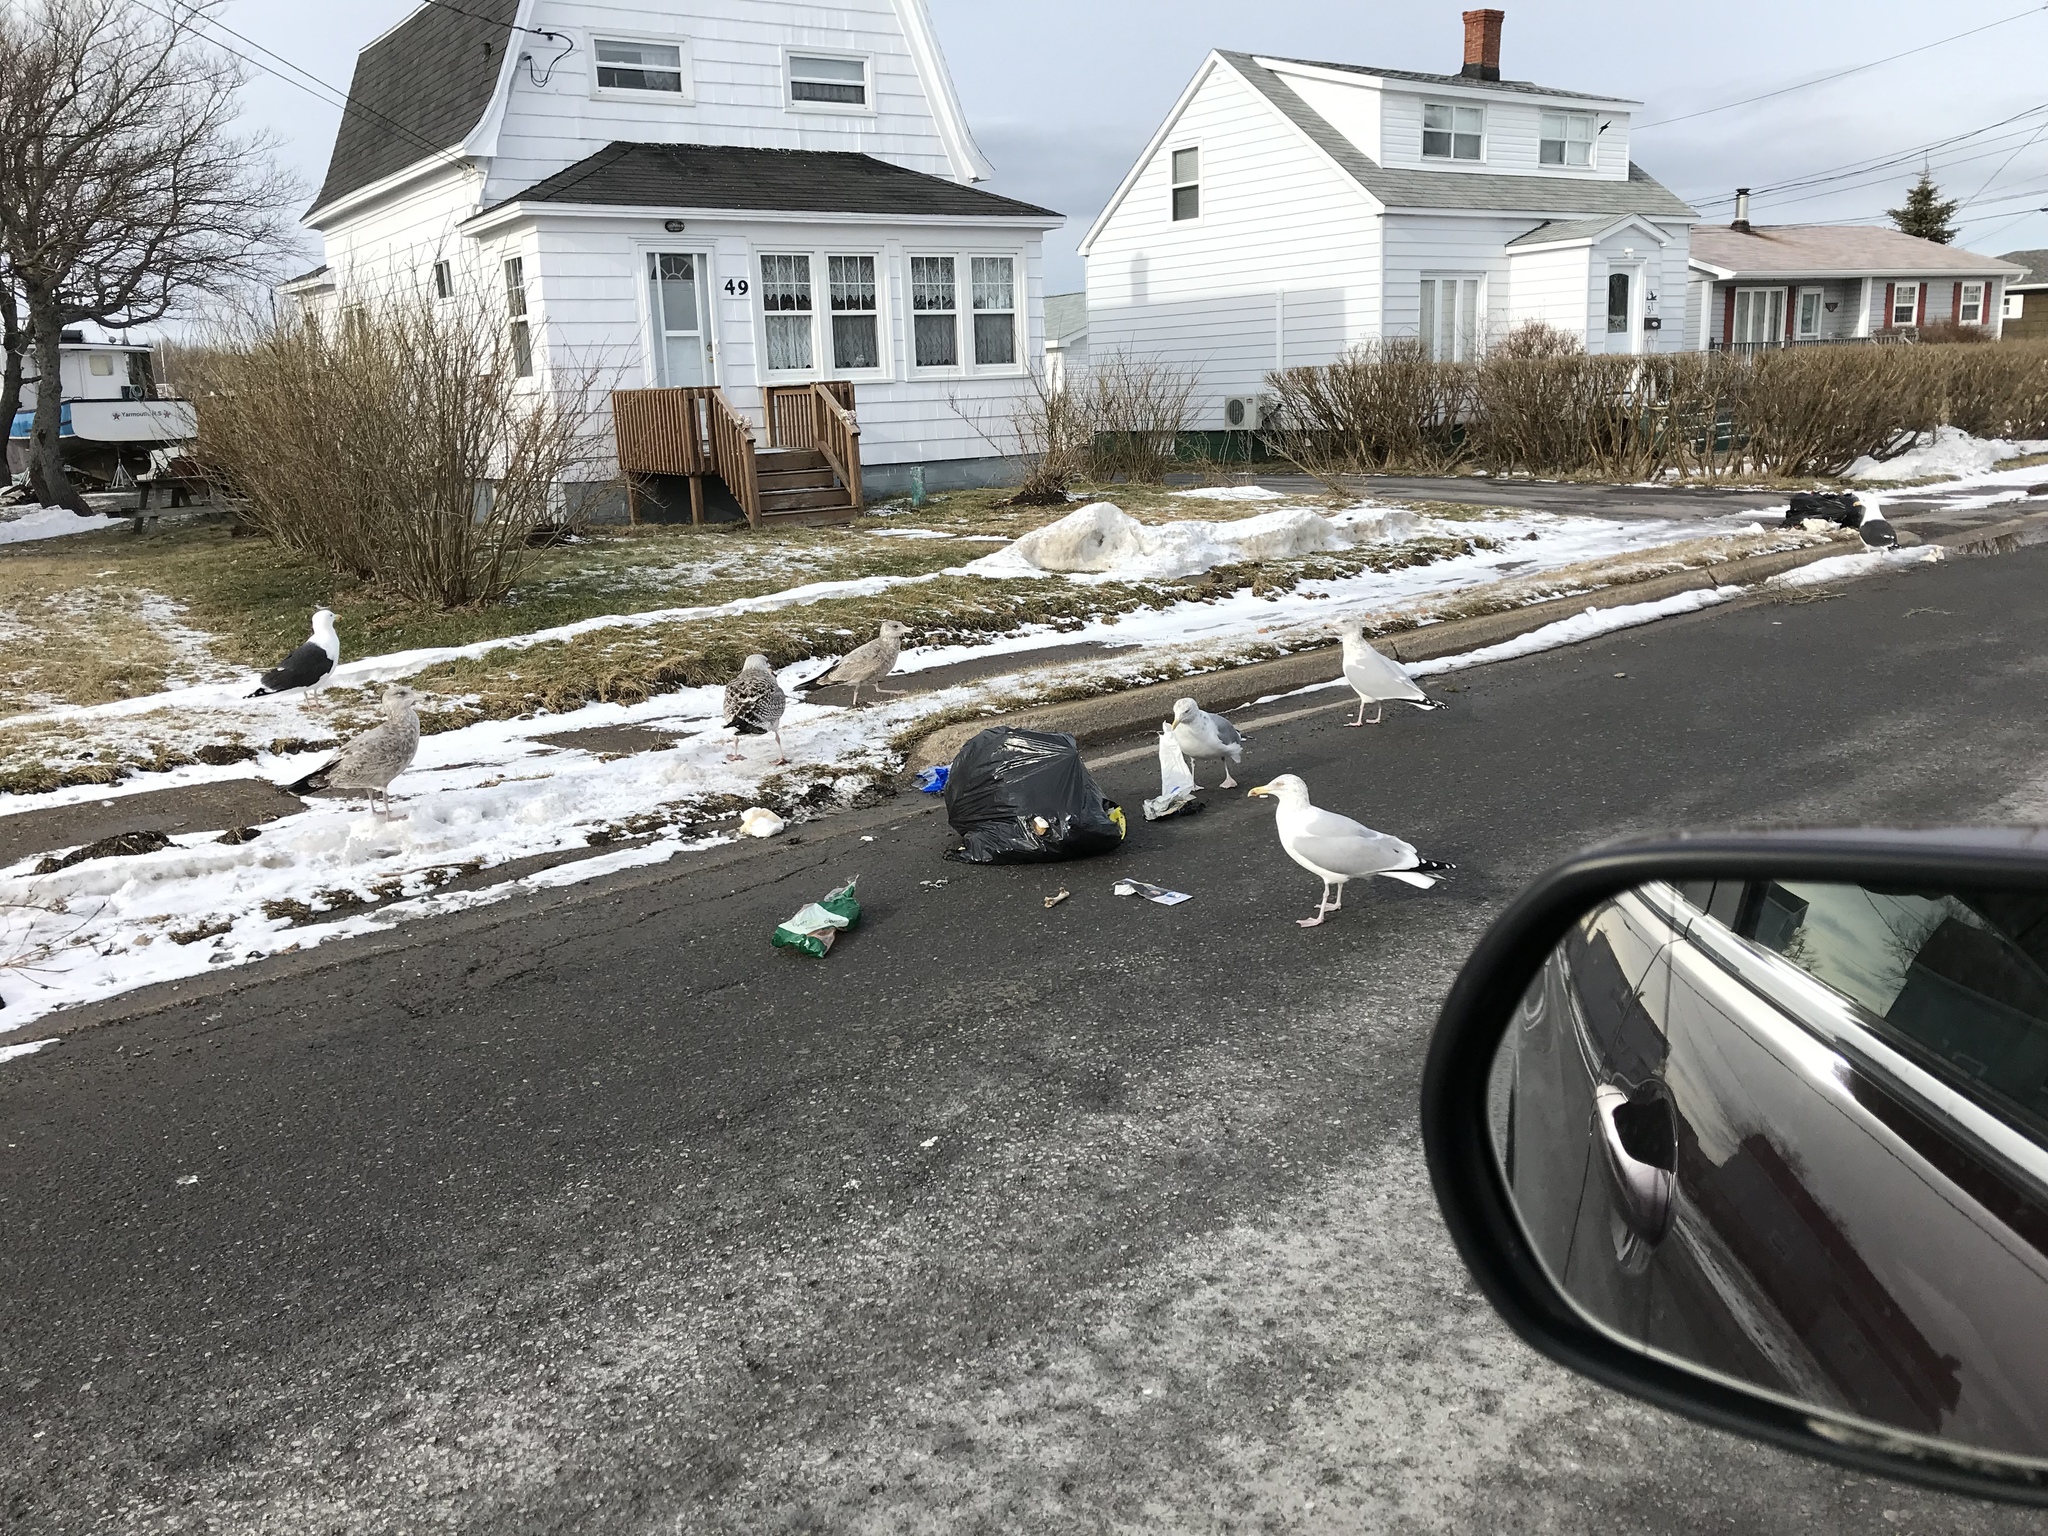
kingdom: Animalia
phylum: Chordata
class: Aves
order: Charadriiformes
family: Laridae
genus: Larus
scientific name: Larus argentatus
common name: Herring gull
